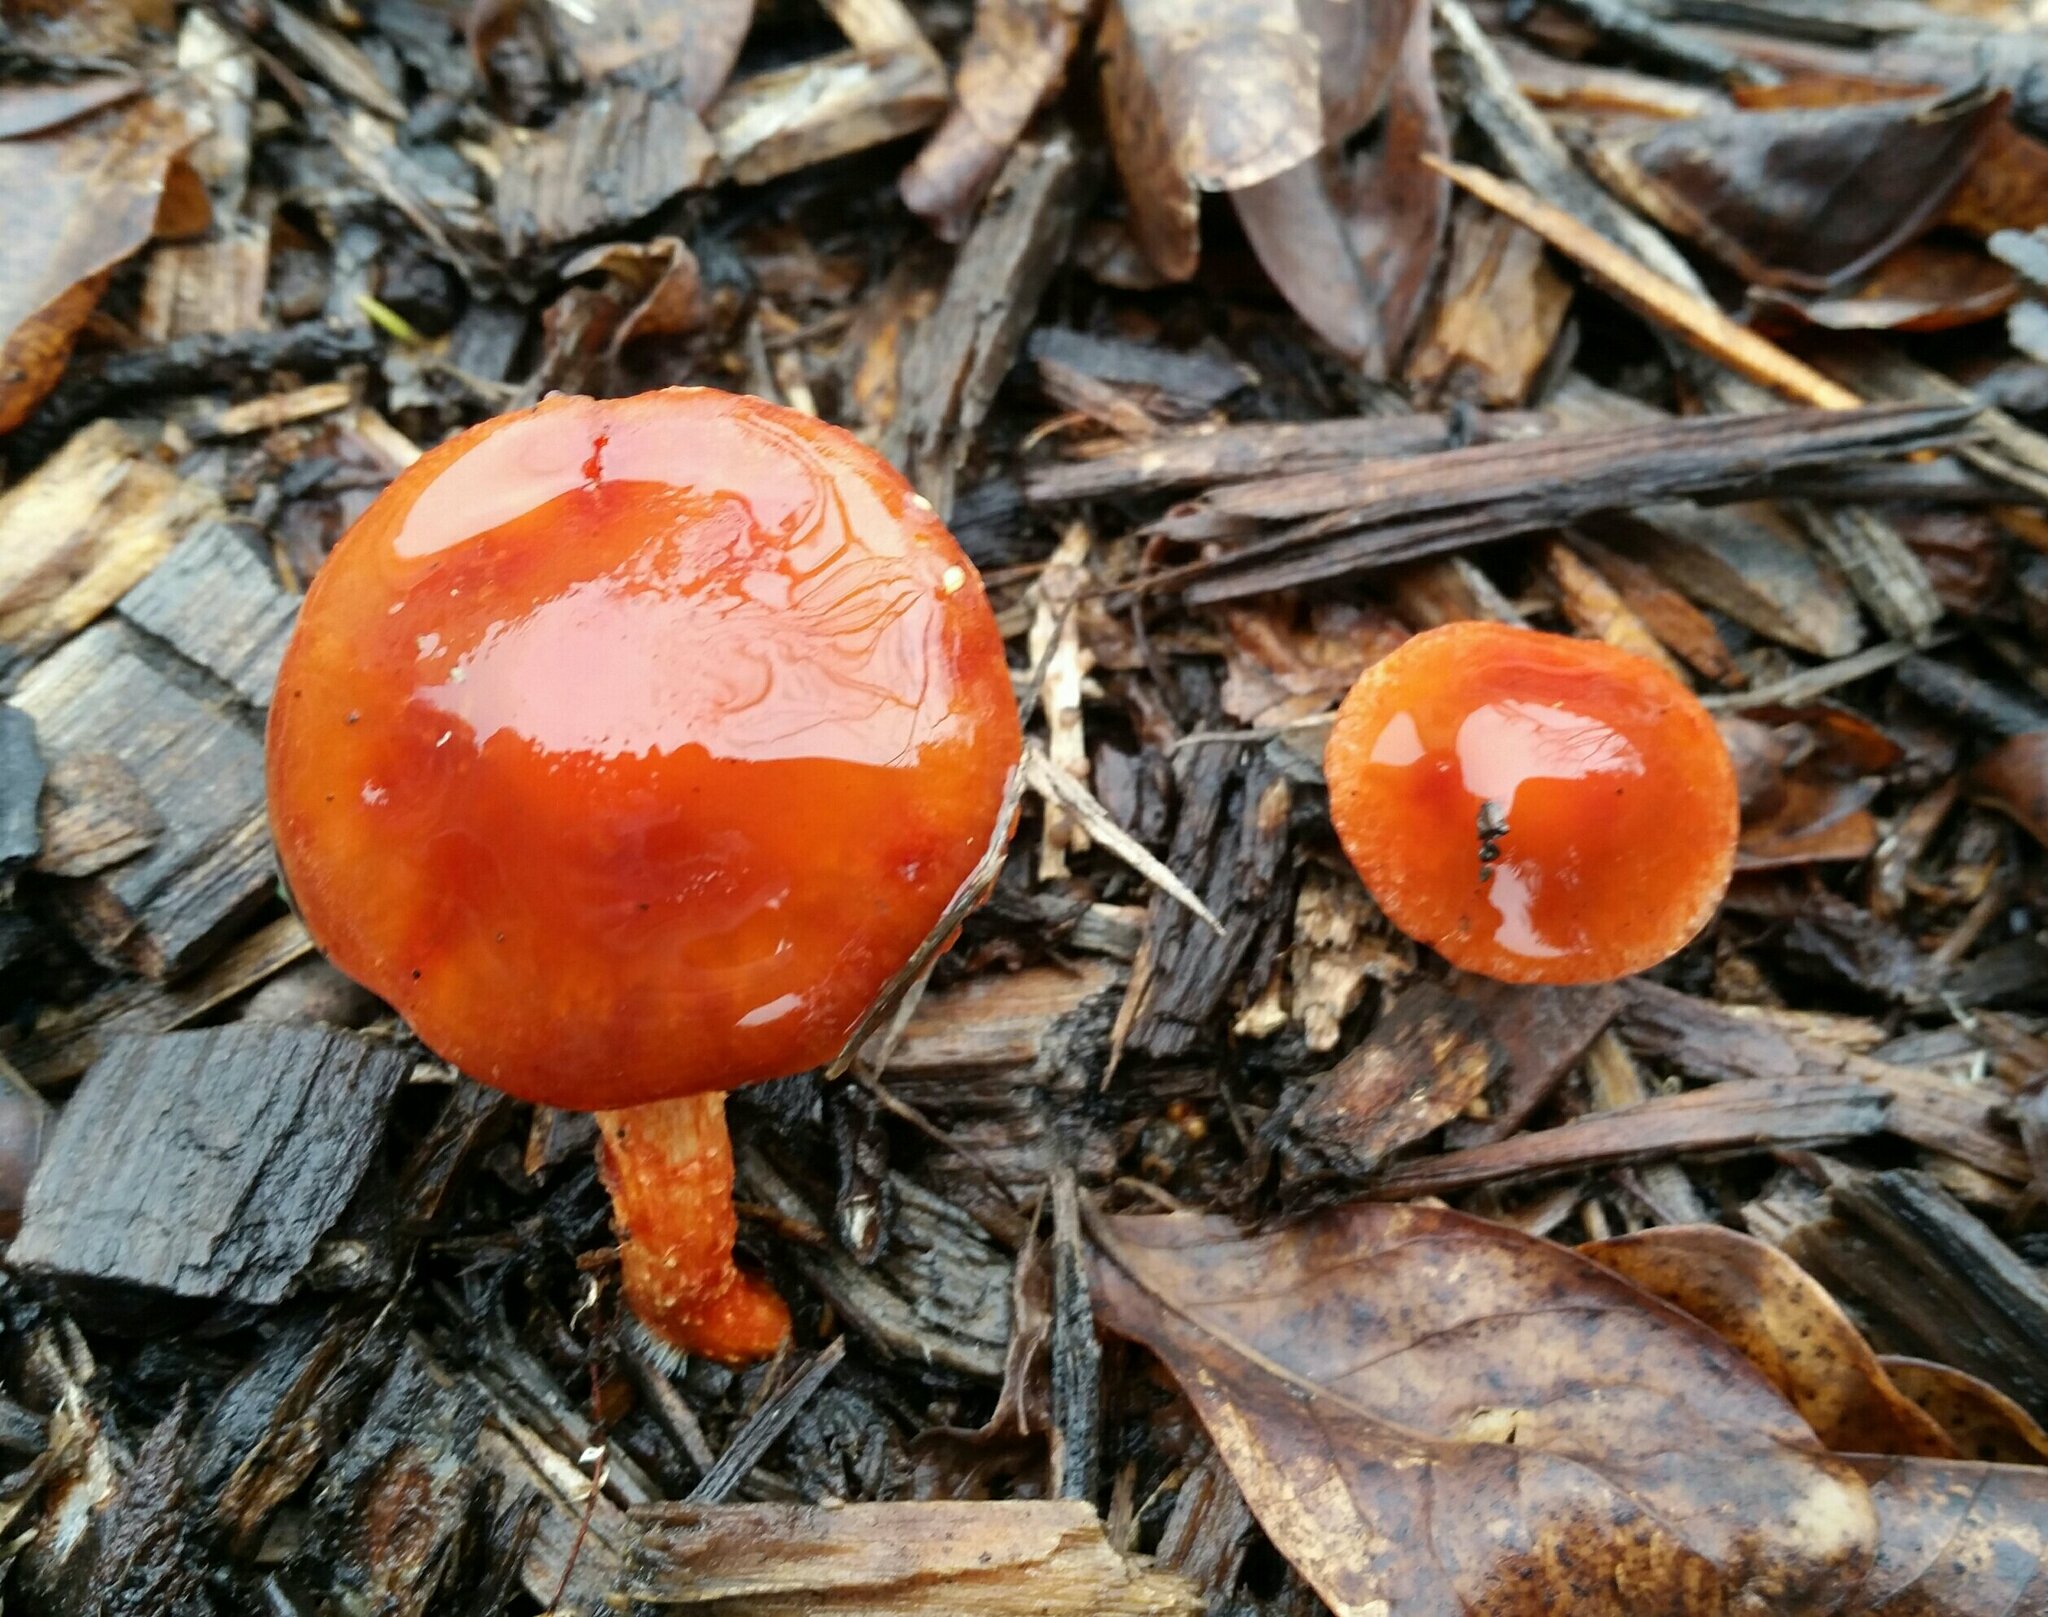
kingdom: Fungi
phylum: Basidiomycota
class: Agaricomycetes
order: Agaricales
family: Strophariaceae
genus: Leratiomyces
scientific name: Leratiomyces ceres
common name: Redlead roundhead
